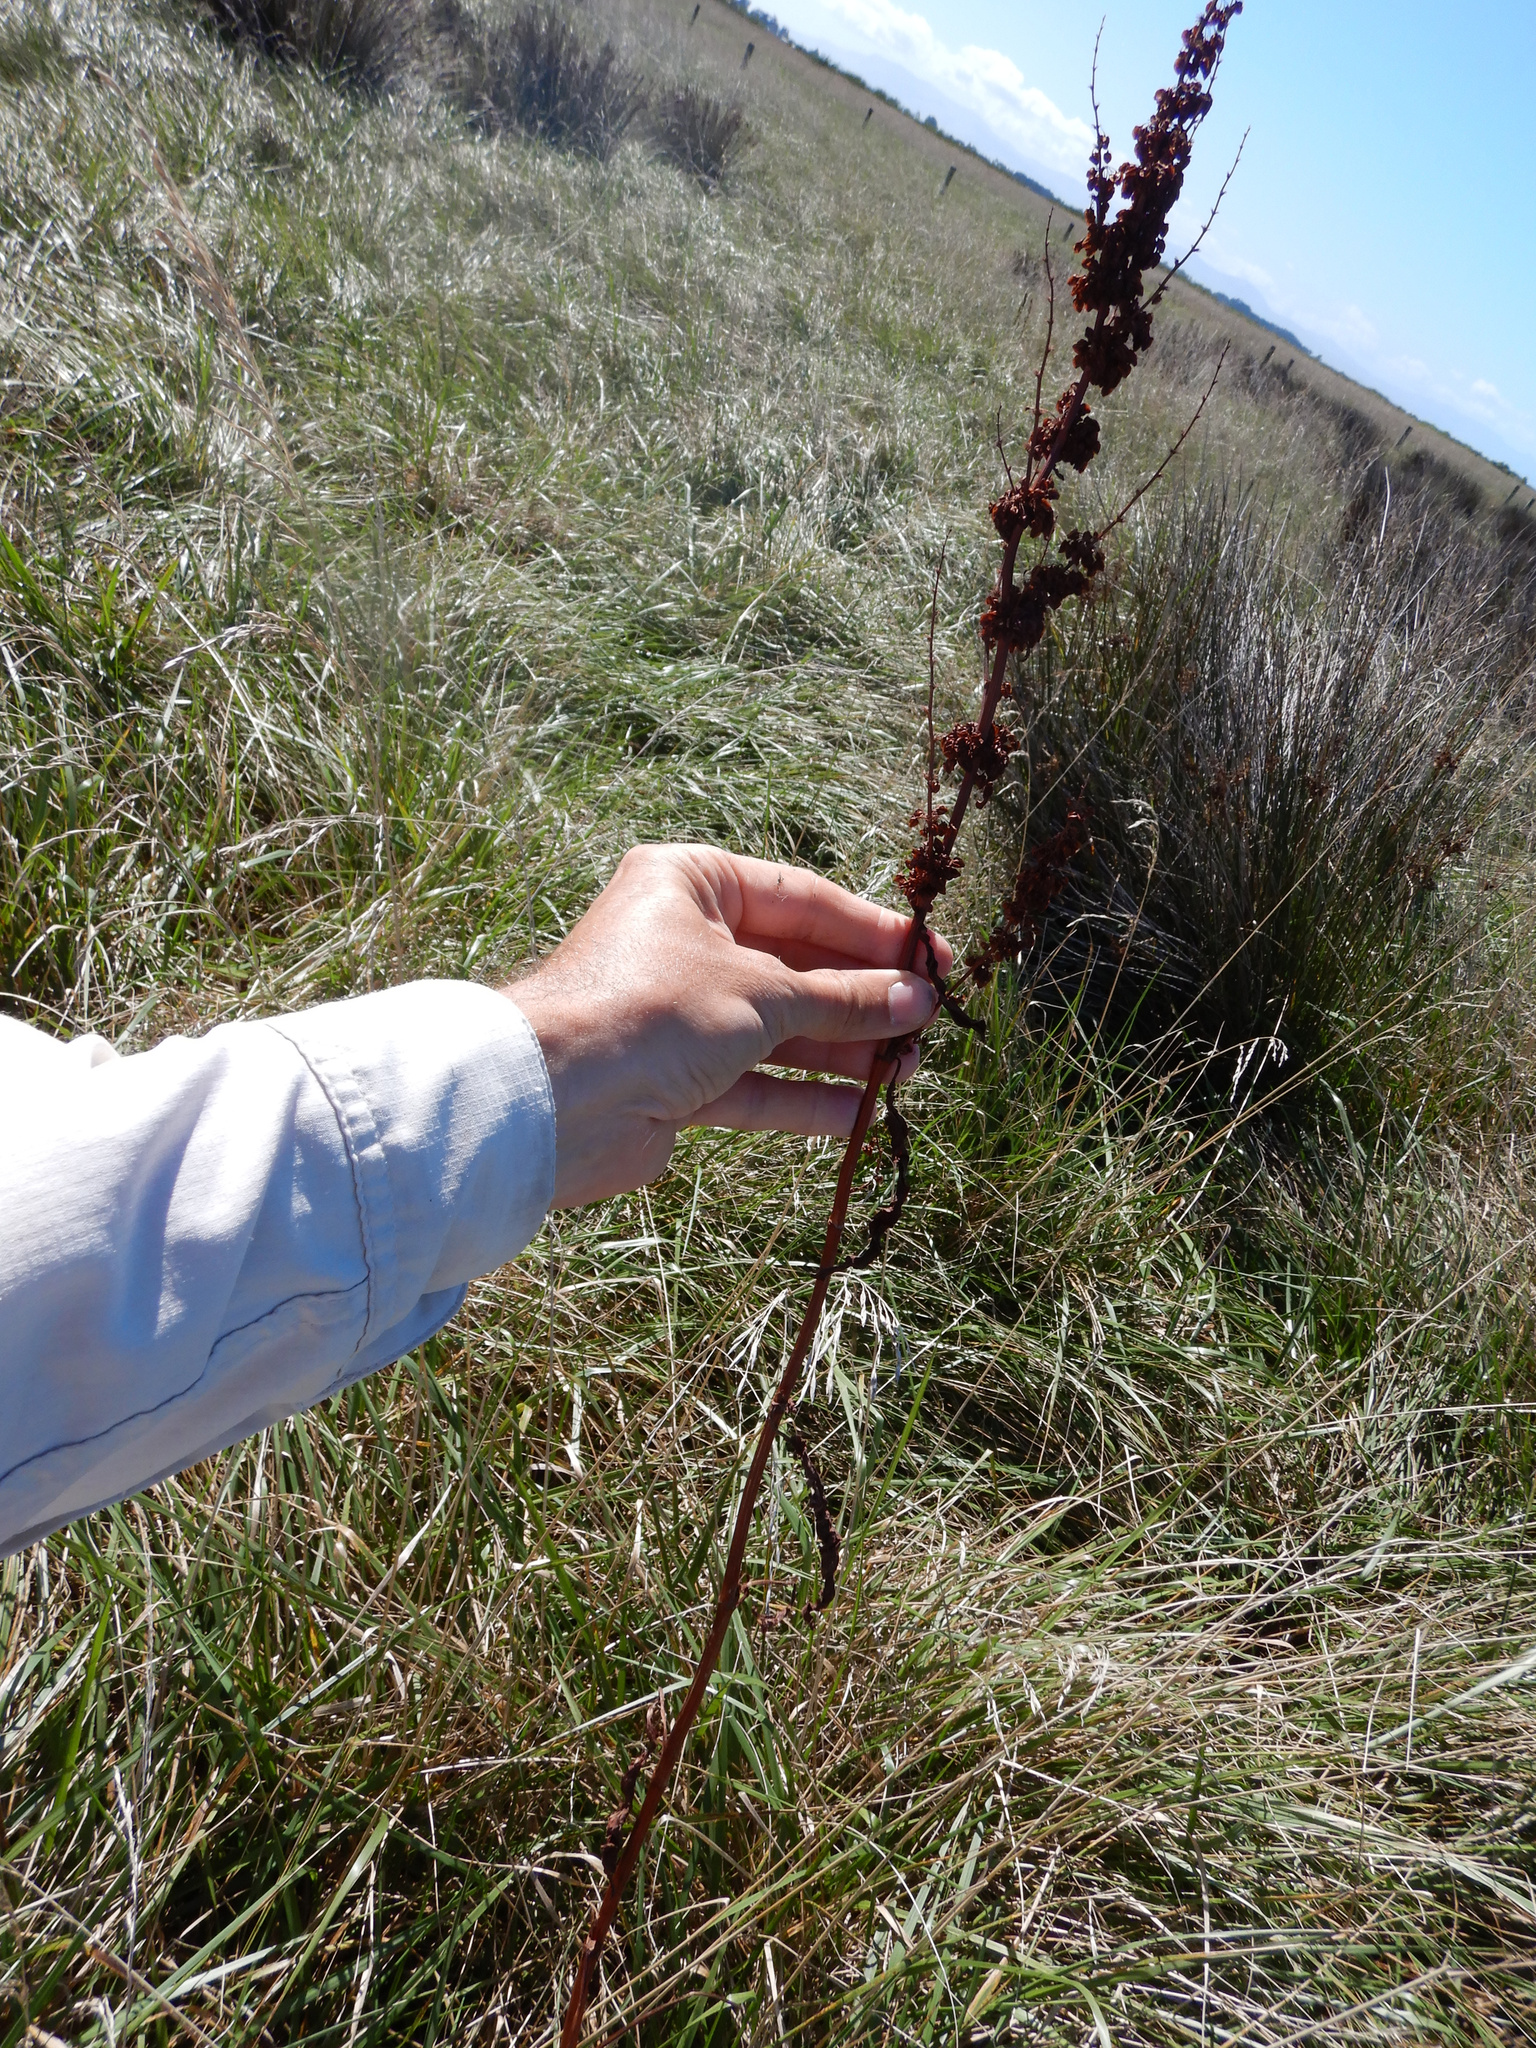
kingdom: Plantae
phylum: Tracheophyta
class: Magnoliopsida
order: Caryophyllales
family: Polygonaceae
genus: Rumex
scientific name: Rumex crispus
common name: Curled dock
